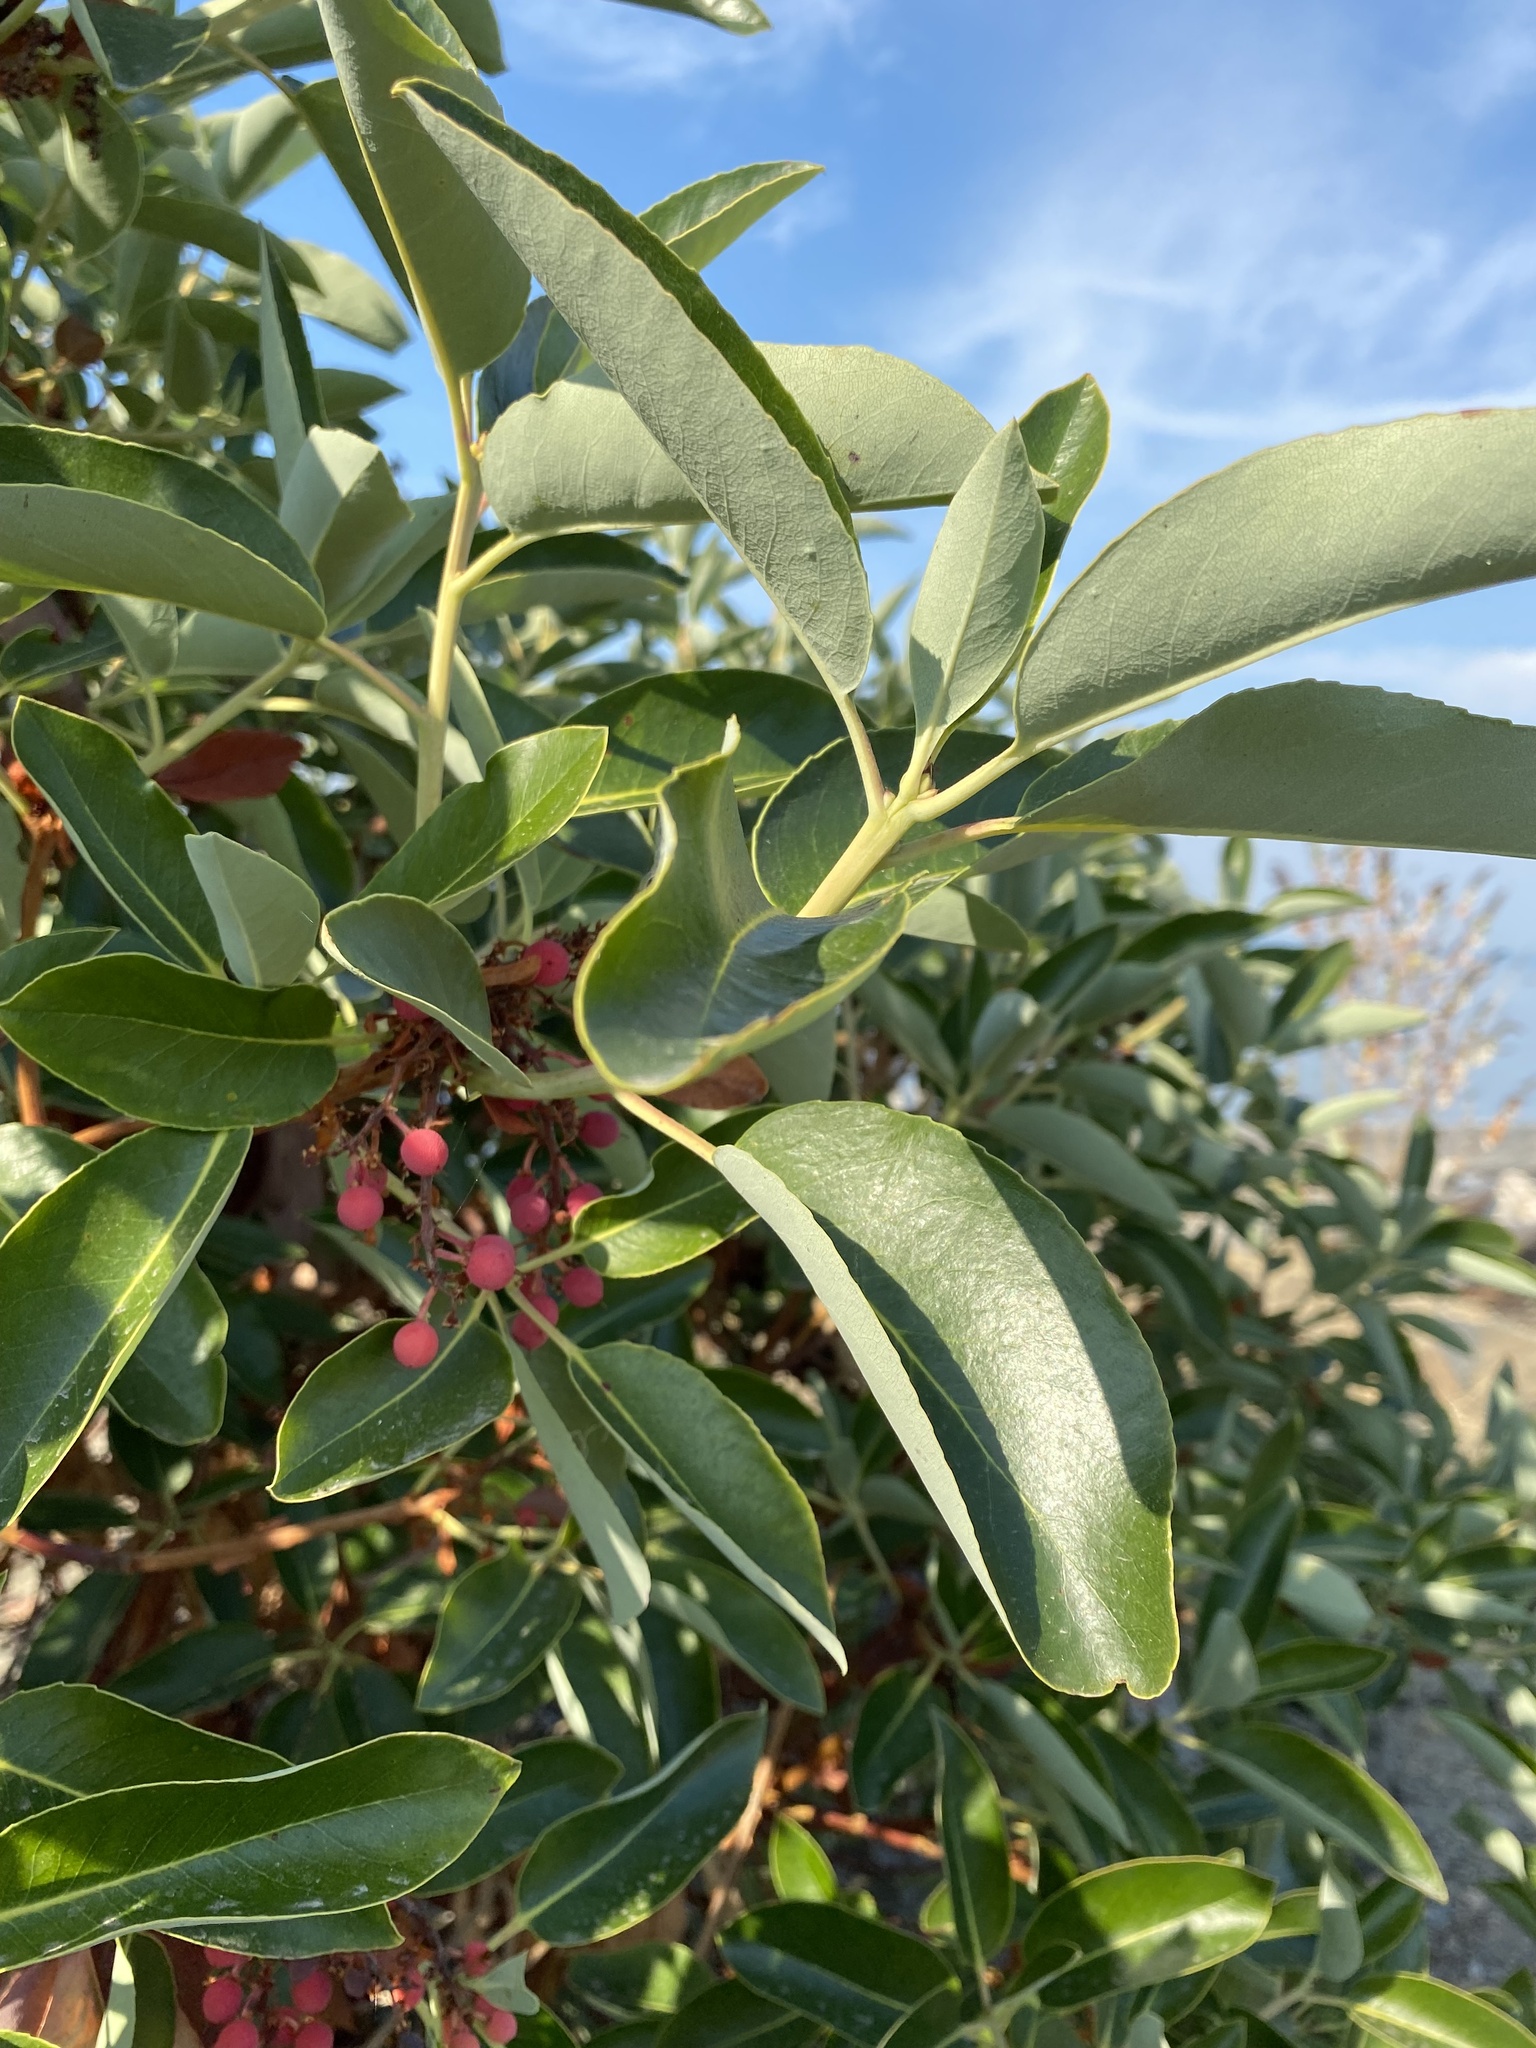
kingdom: Plantae
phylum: Tracheophyta
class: Magnoliopsida
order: Ericales
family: Ericaceae
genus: Arbutus
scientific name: Arbutus menziesii
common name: Pacific madrone
